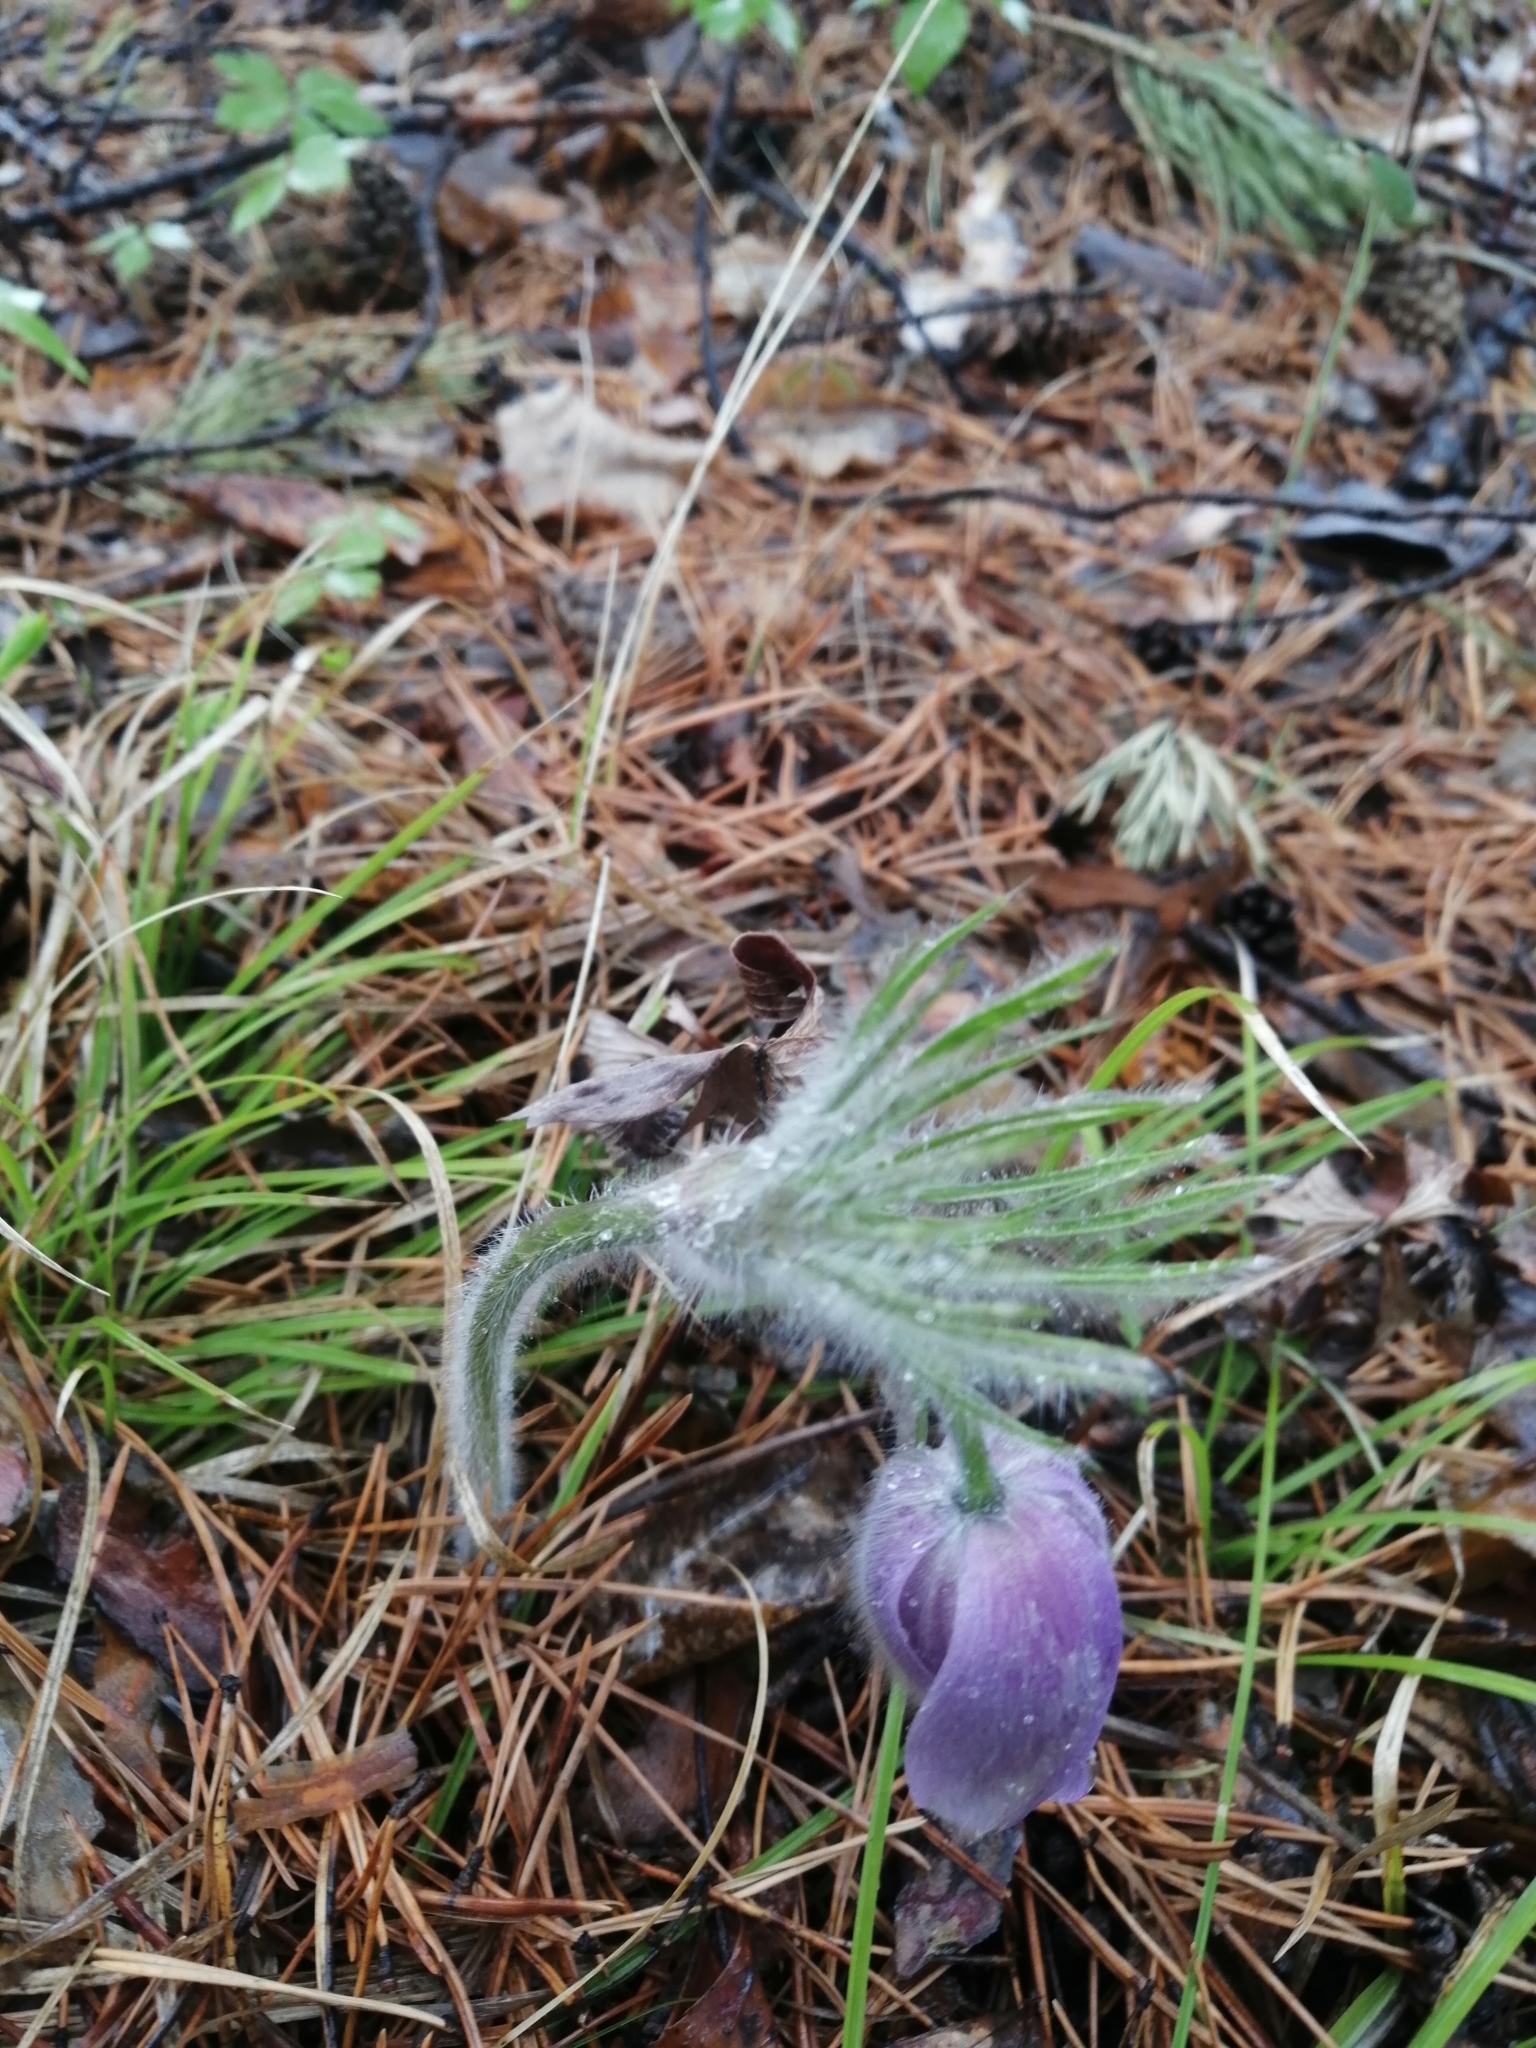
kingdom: Plantae
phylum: Tracheophyta
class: Magnoliopsida
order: Ranunculales
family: Ranunculaceae
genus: Pulsatilla
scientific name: Pulsatilla patens
